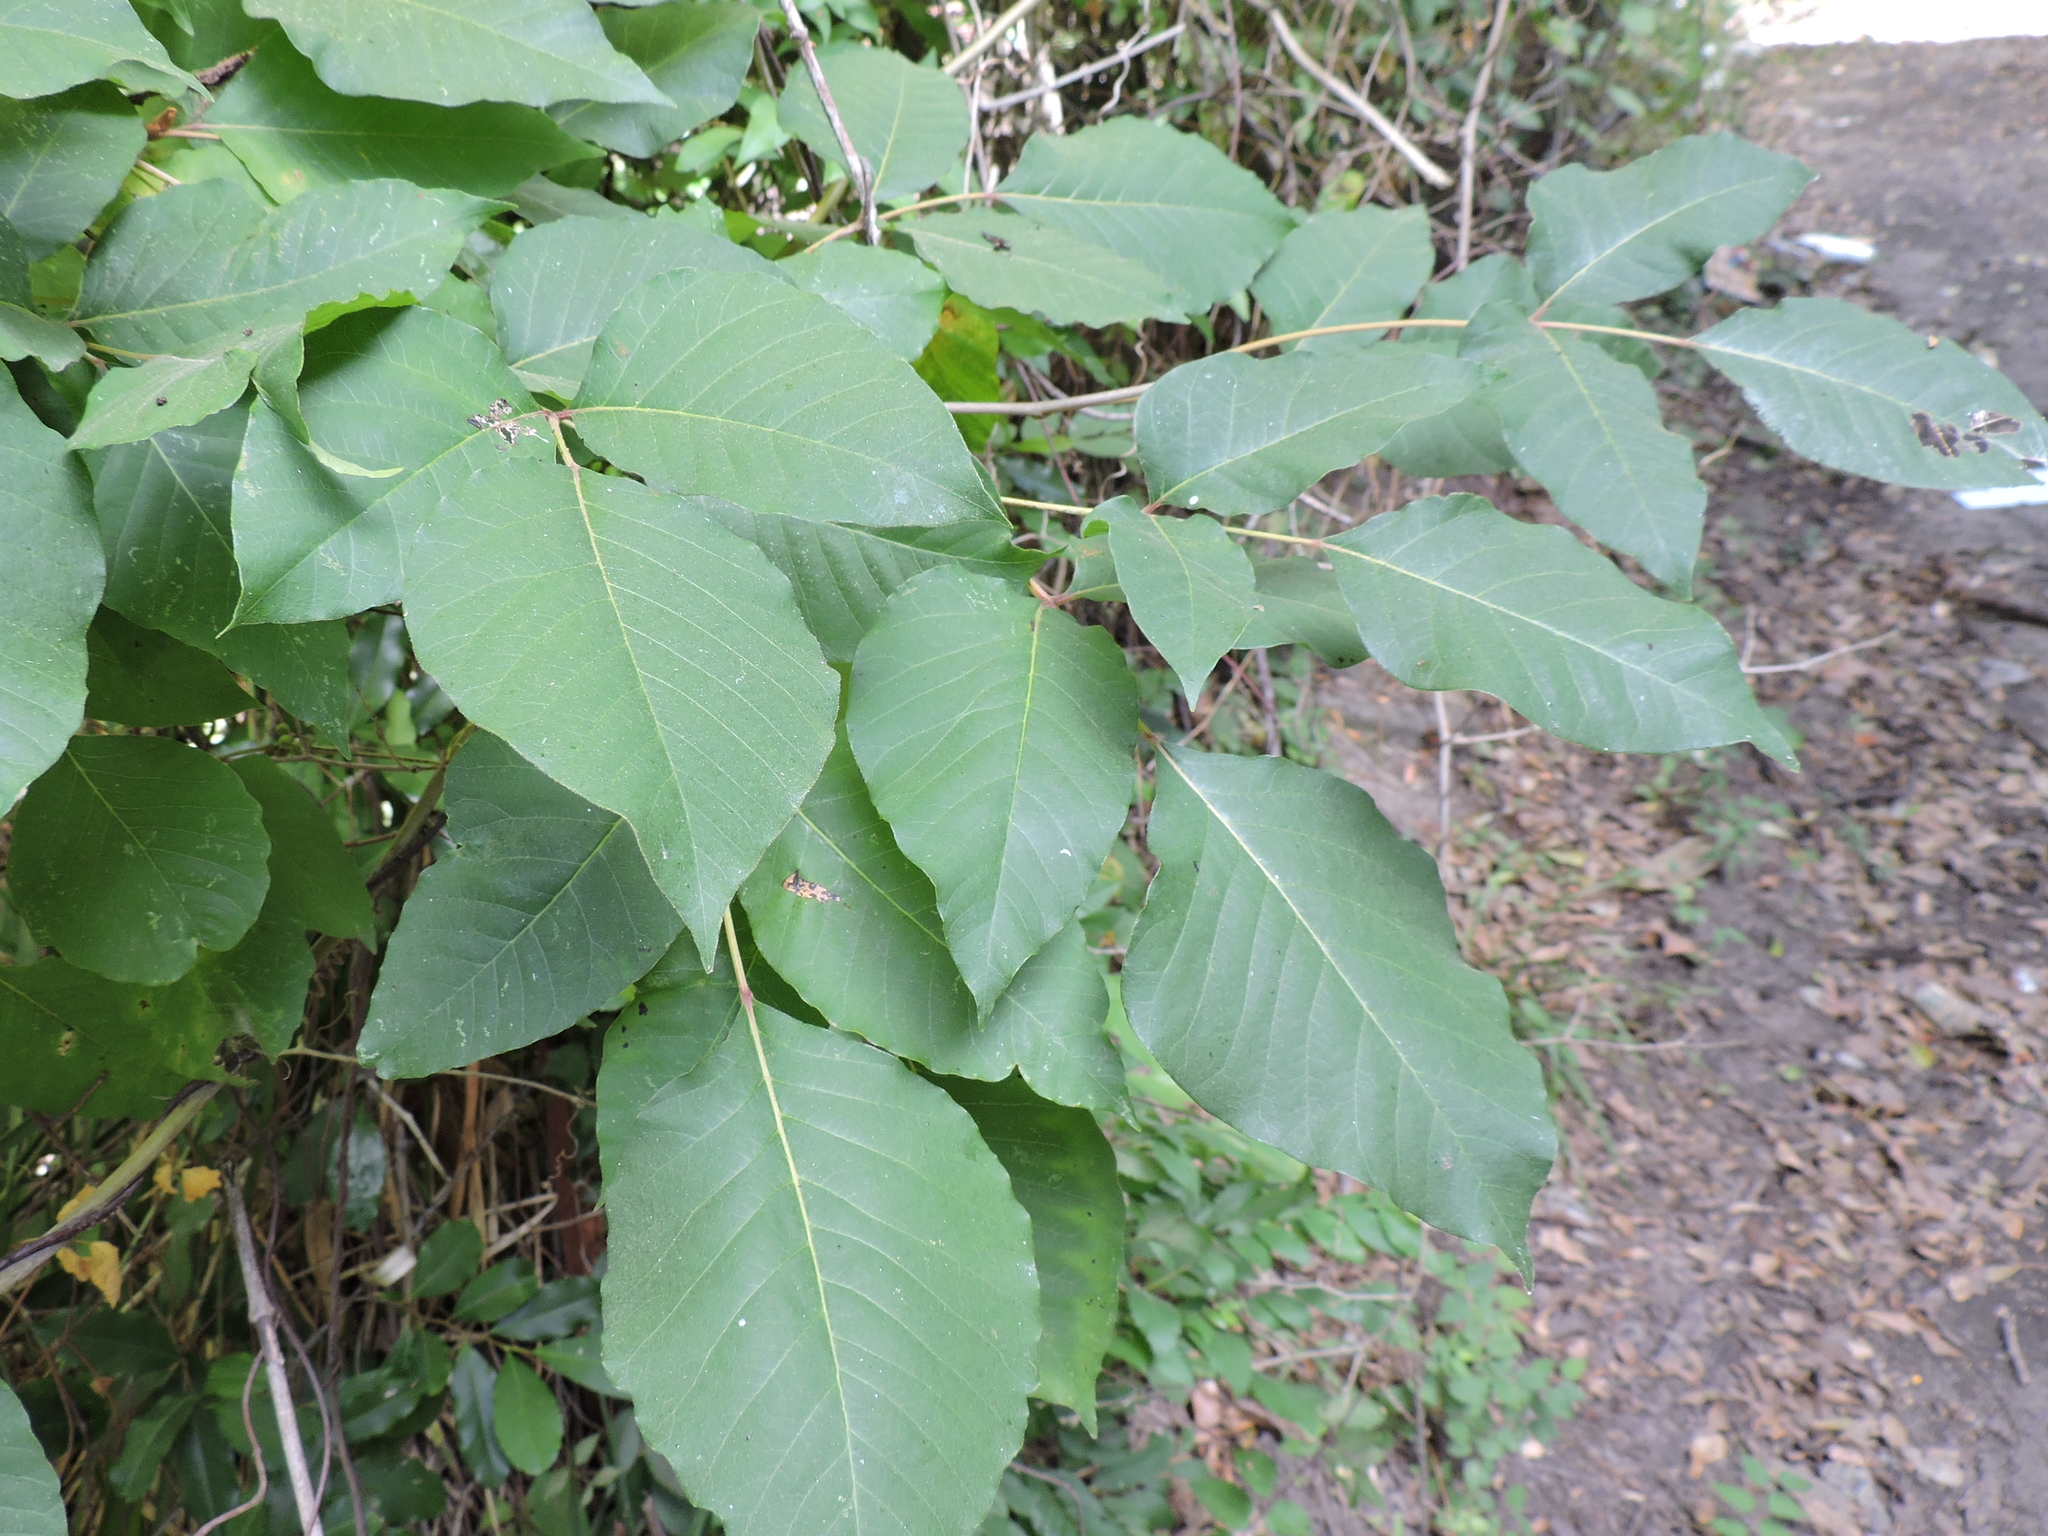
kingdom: Plantae
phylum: Tracheophyta
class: Magnoliopsida
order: Sapindales
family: Anacardiaceae
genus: Toxicodendron
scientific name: Toxicodendron radicans
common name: Poison ivy
